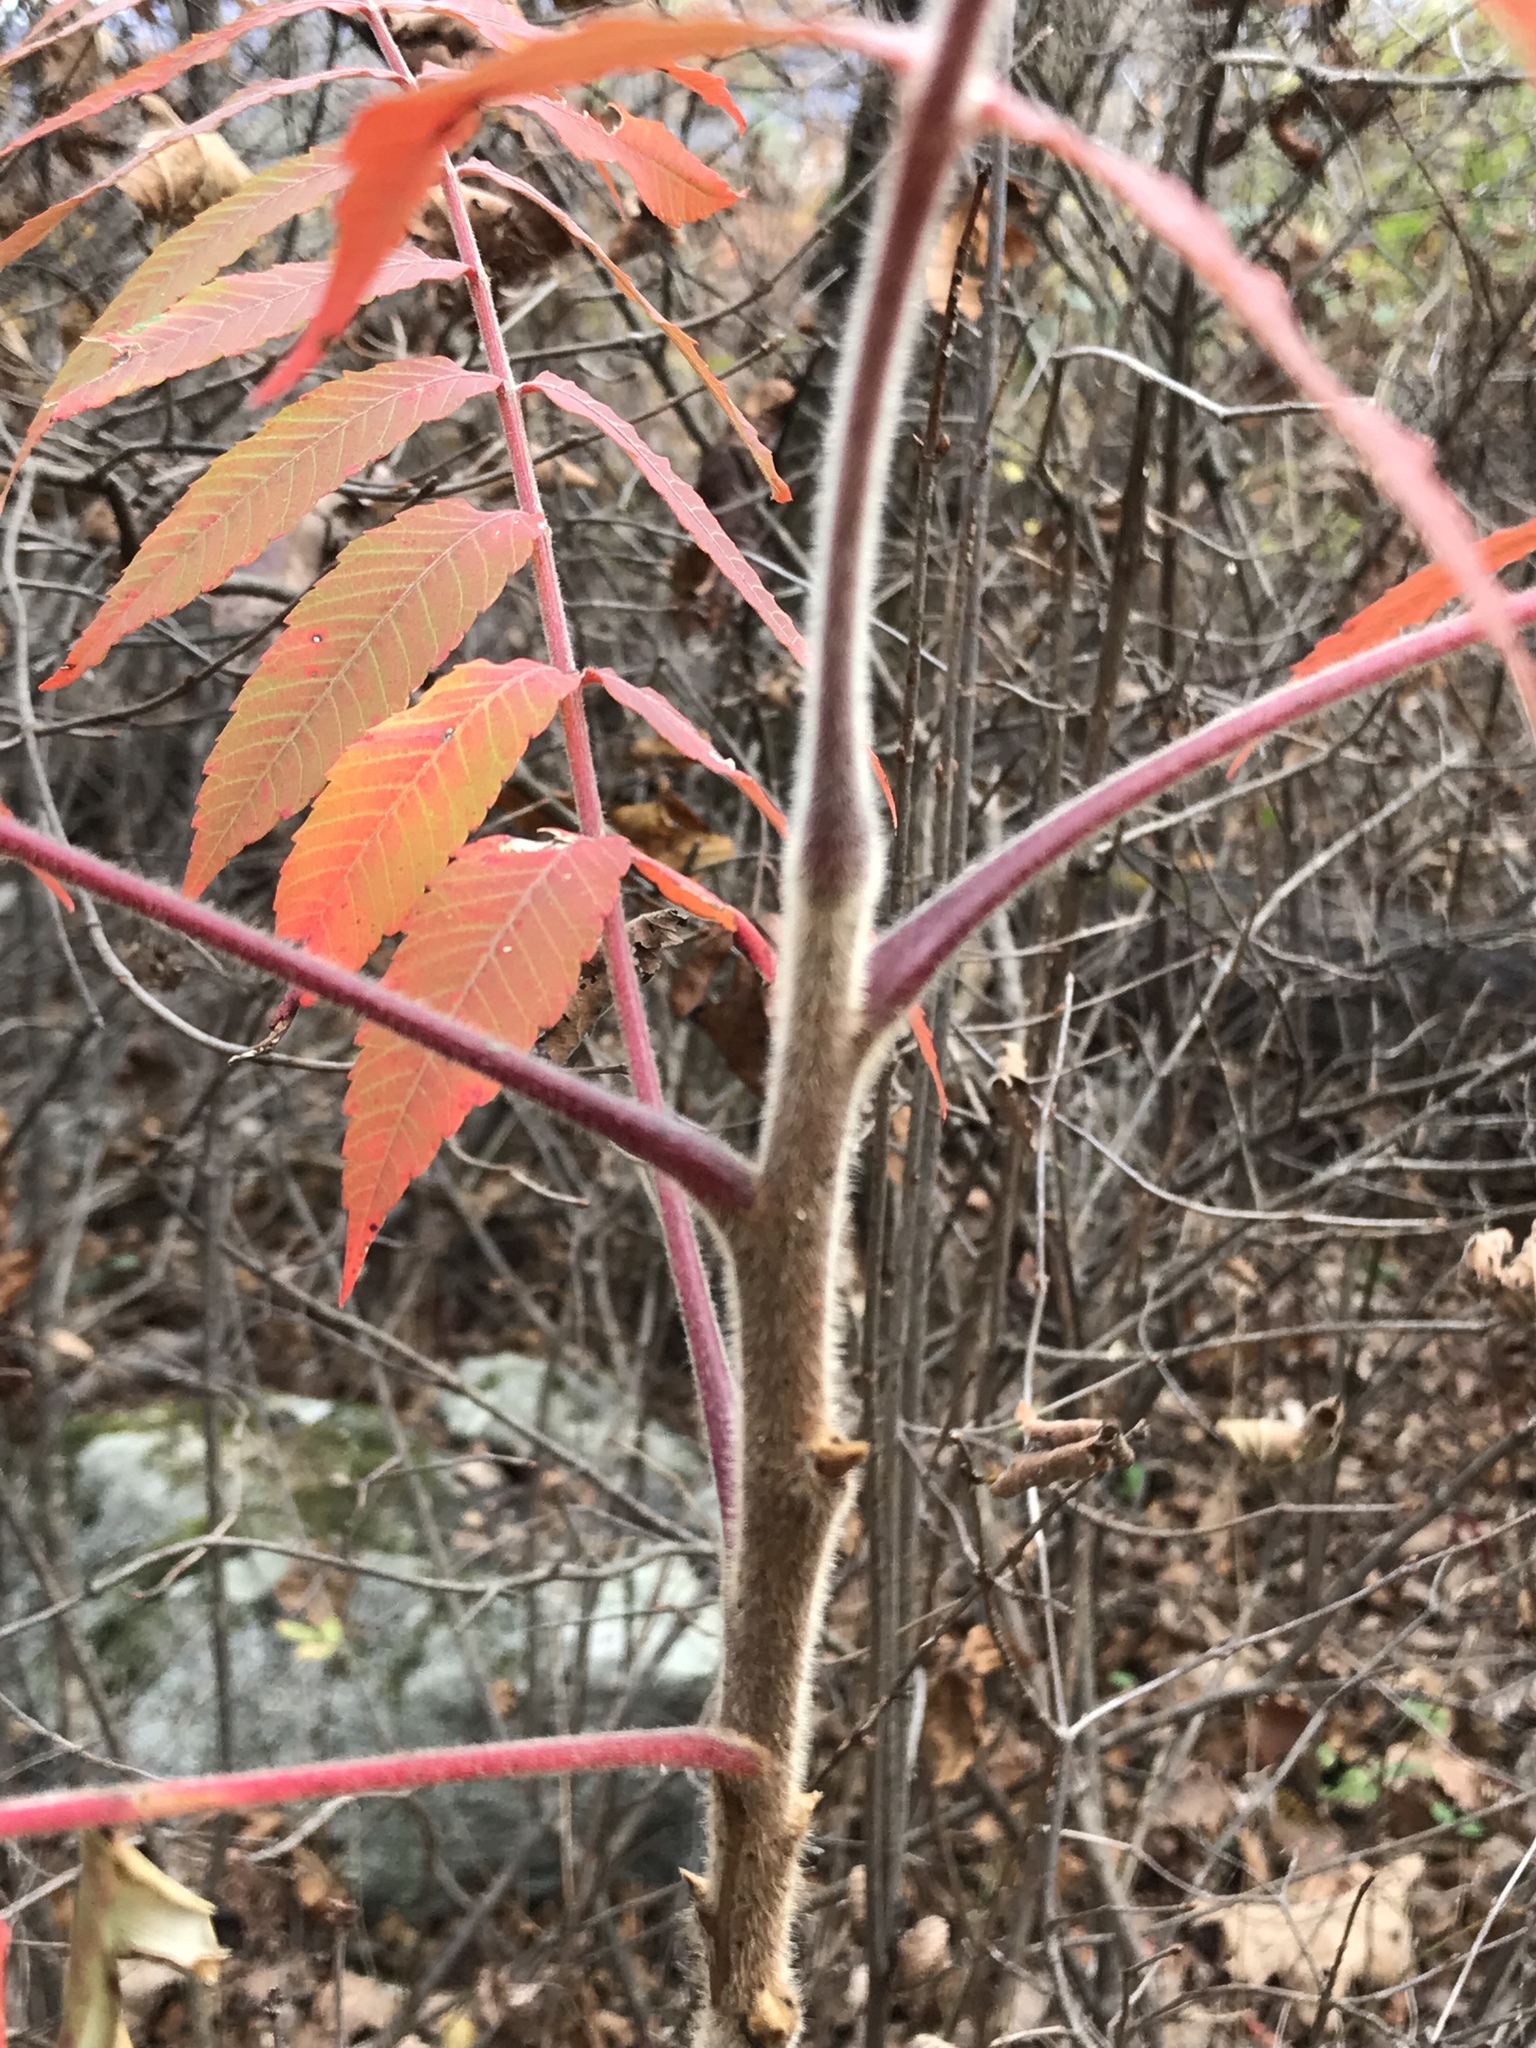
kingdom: Plantae
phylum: Tracheophyta
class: Magnoliopsida
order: Sapindales
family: Anacardiaceae
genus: Rhus
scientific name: Rhus typhina
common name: Staghorn sumac
